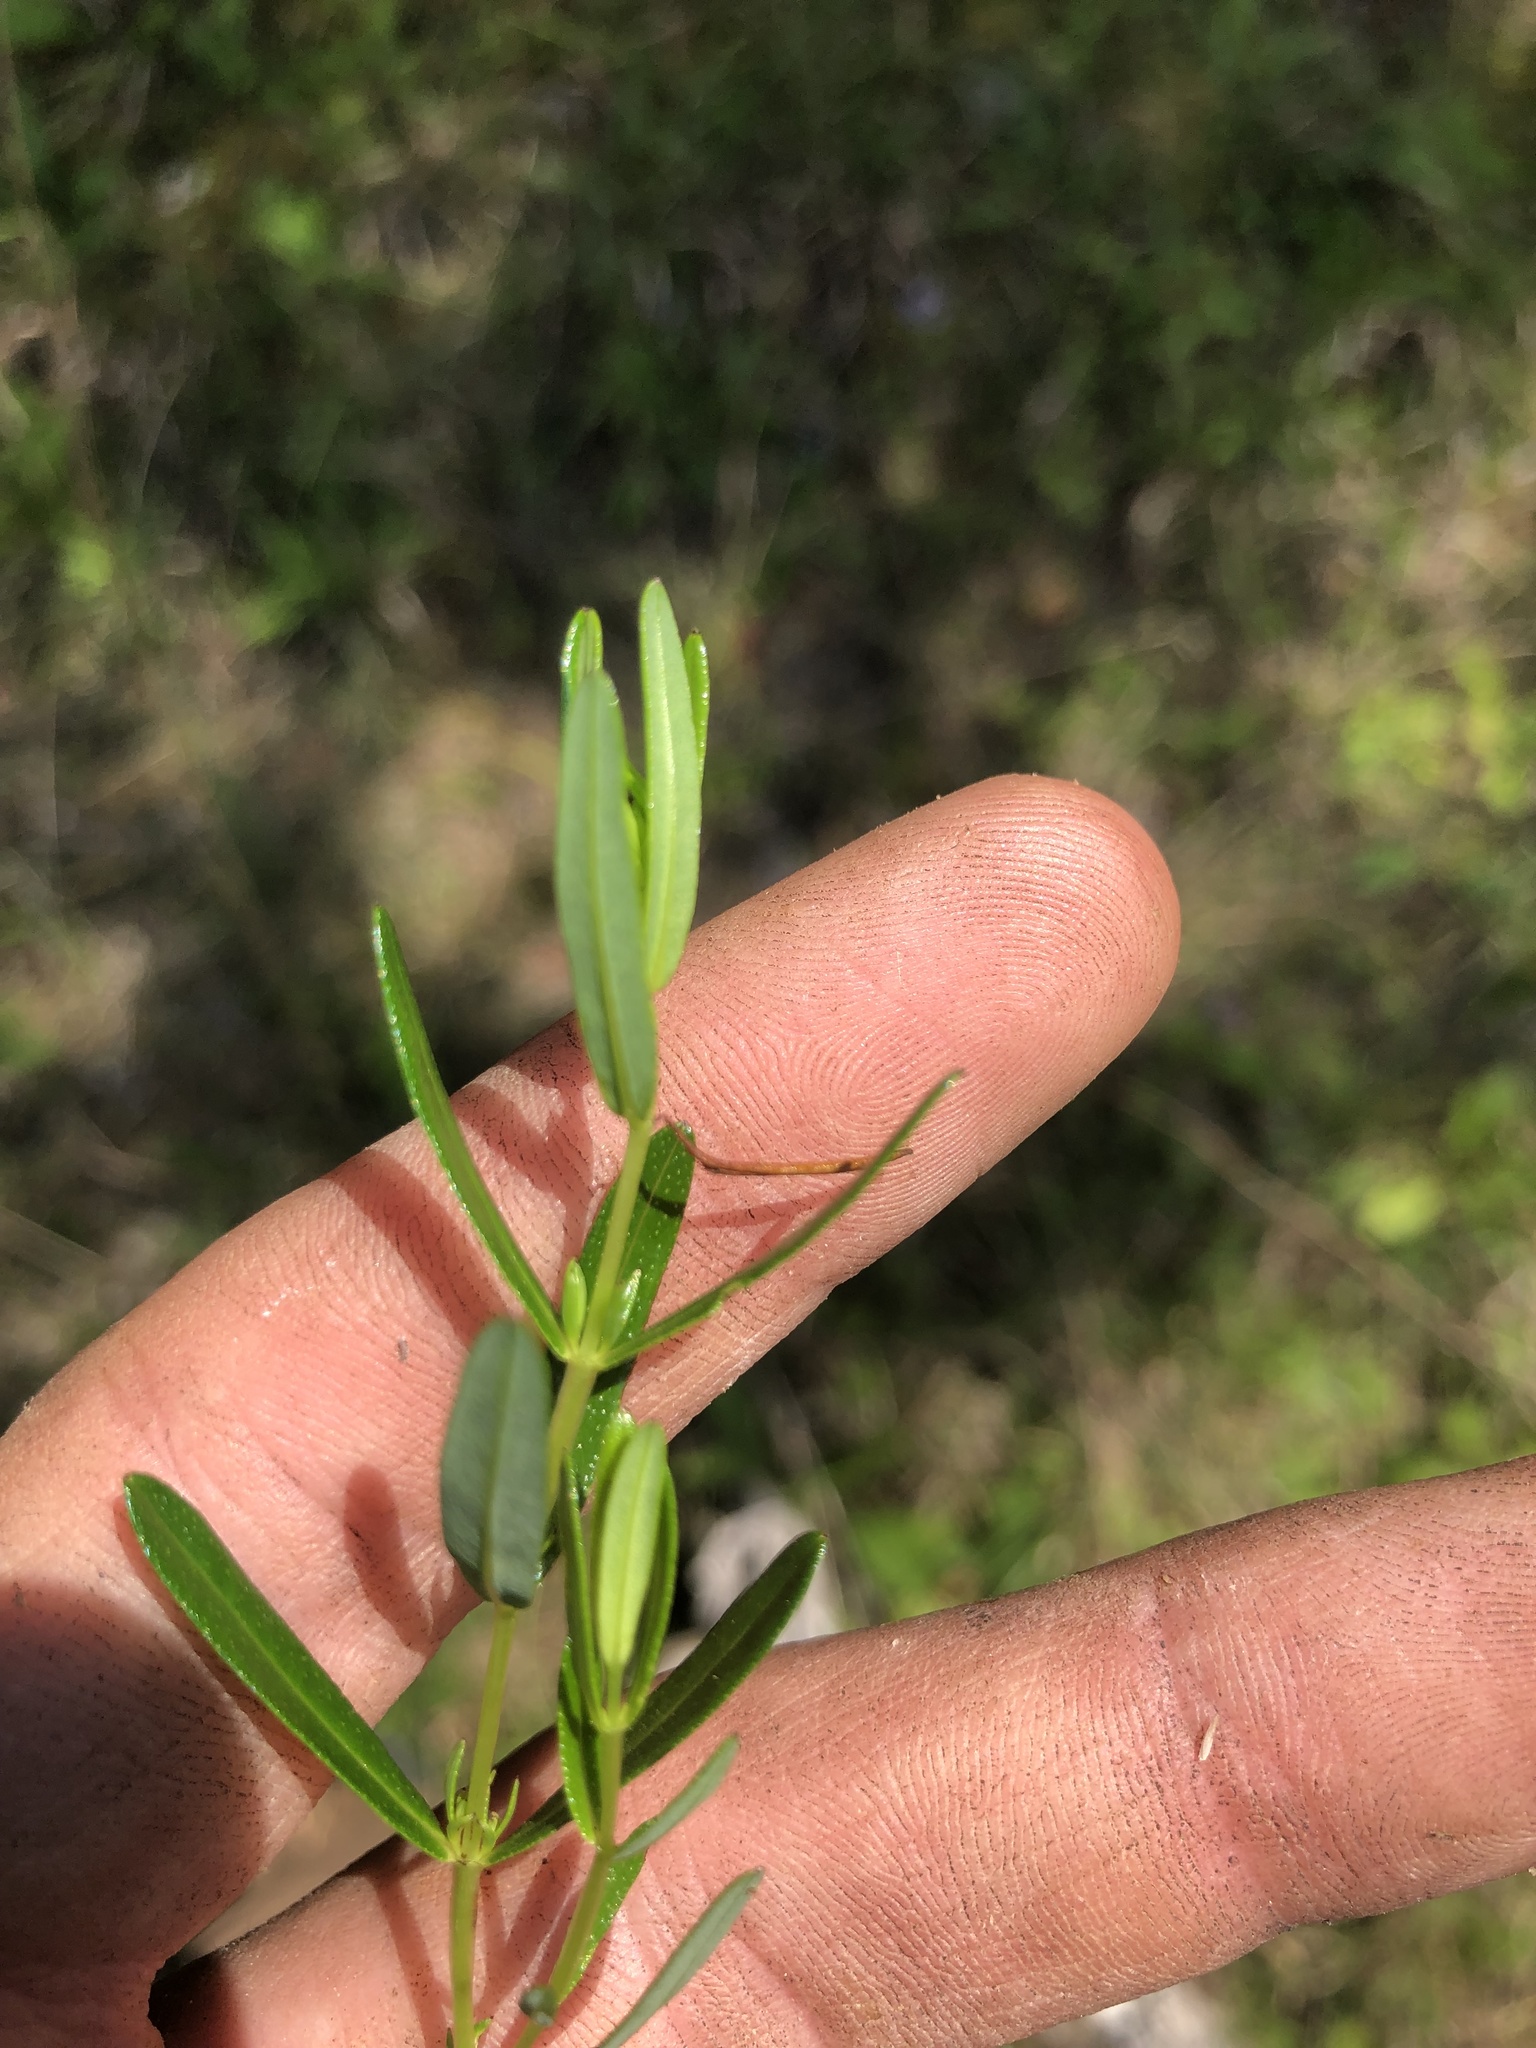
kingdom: Plantae
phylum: Tracheophyta
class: Magnoliopsida
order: Malpighiales
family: Hypericaceae
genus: Hypericum
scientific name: Hypericum sphaerocarpum
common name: Round-fruited st. john's-wort
